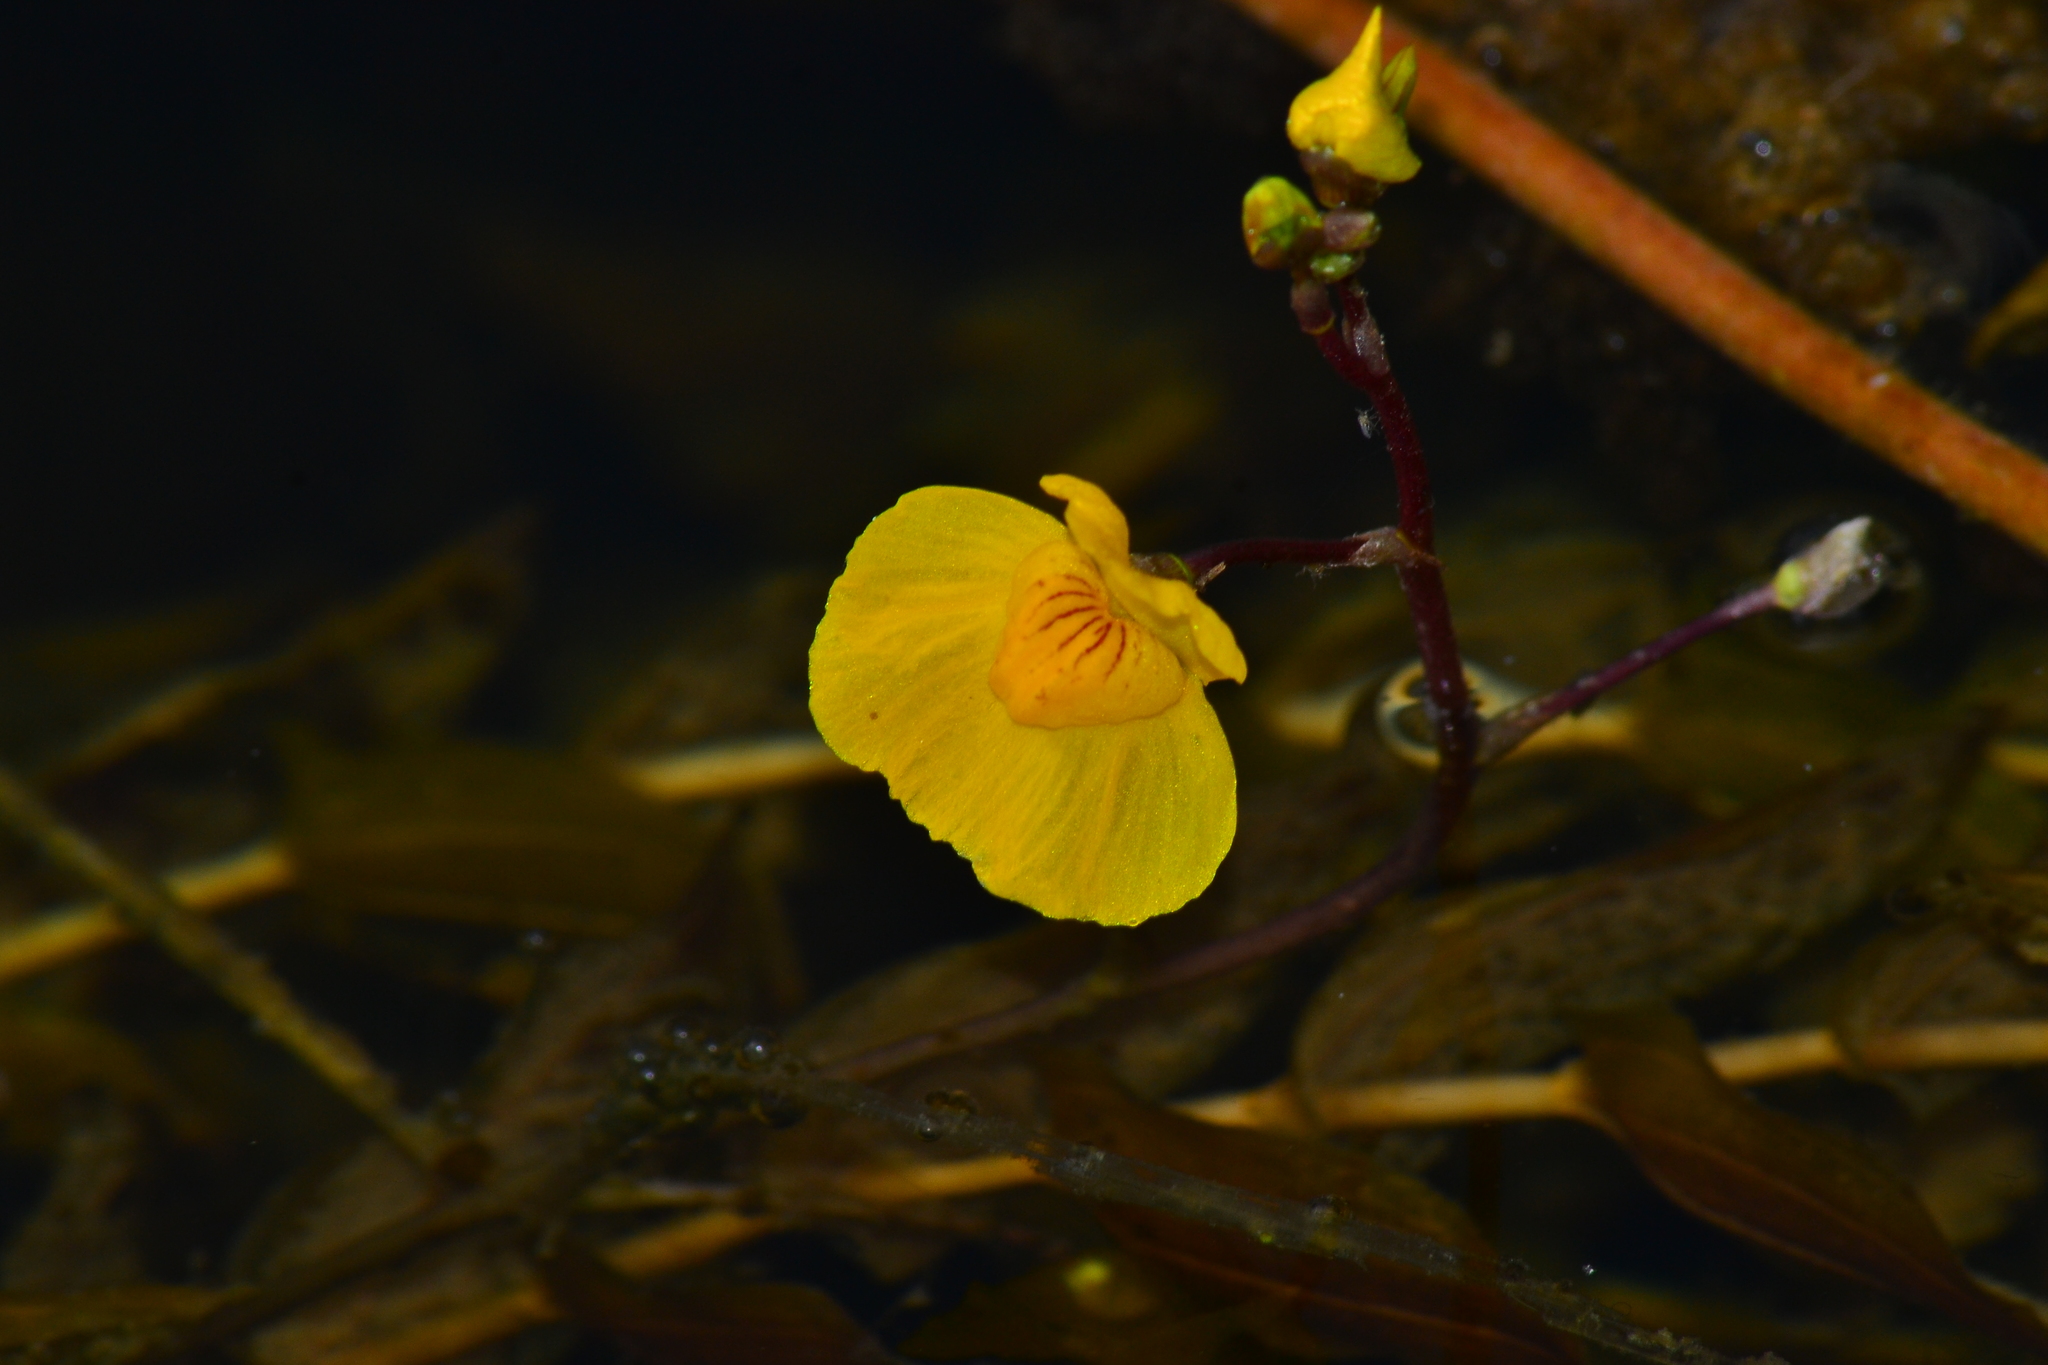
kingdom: Plantae
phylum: Tracheophyta
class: Magnoliopsida
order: Lamiales
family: Lentibulariaceae
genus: Utricularia
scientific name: Utricularia australis
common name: Bladderwort
